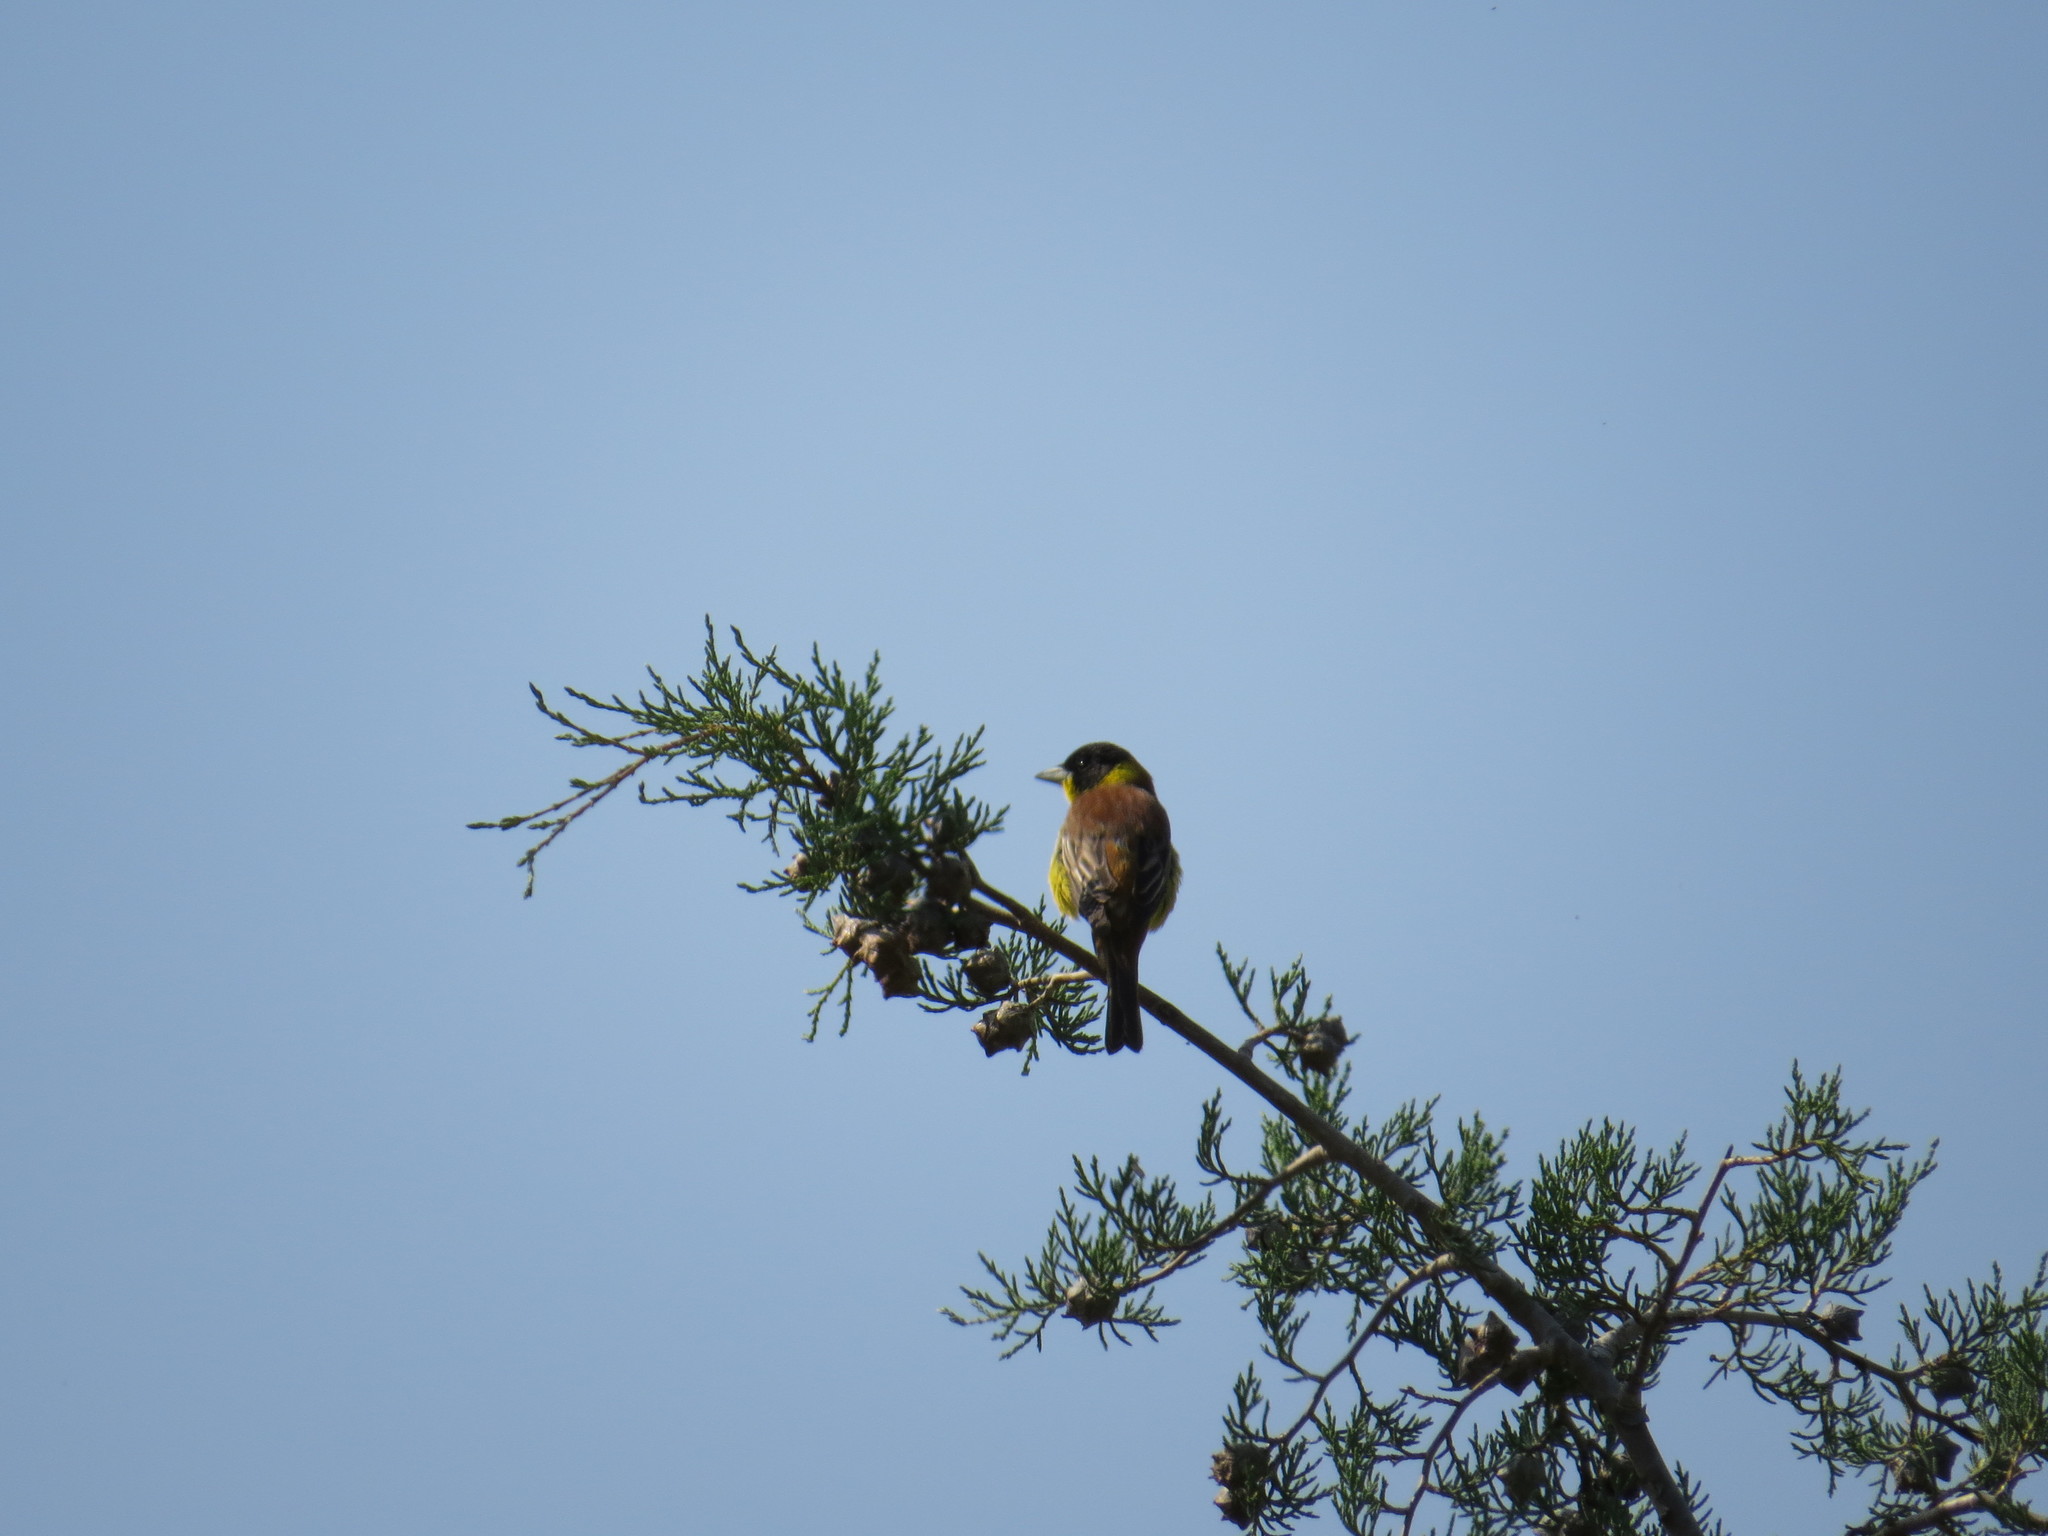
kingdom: Animalia
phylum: Chordata
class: Aves
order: Passeriformes
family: Emberizidae
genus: Emberiza
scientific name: Emberiza melanocephala
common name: Black-headed bunting
